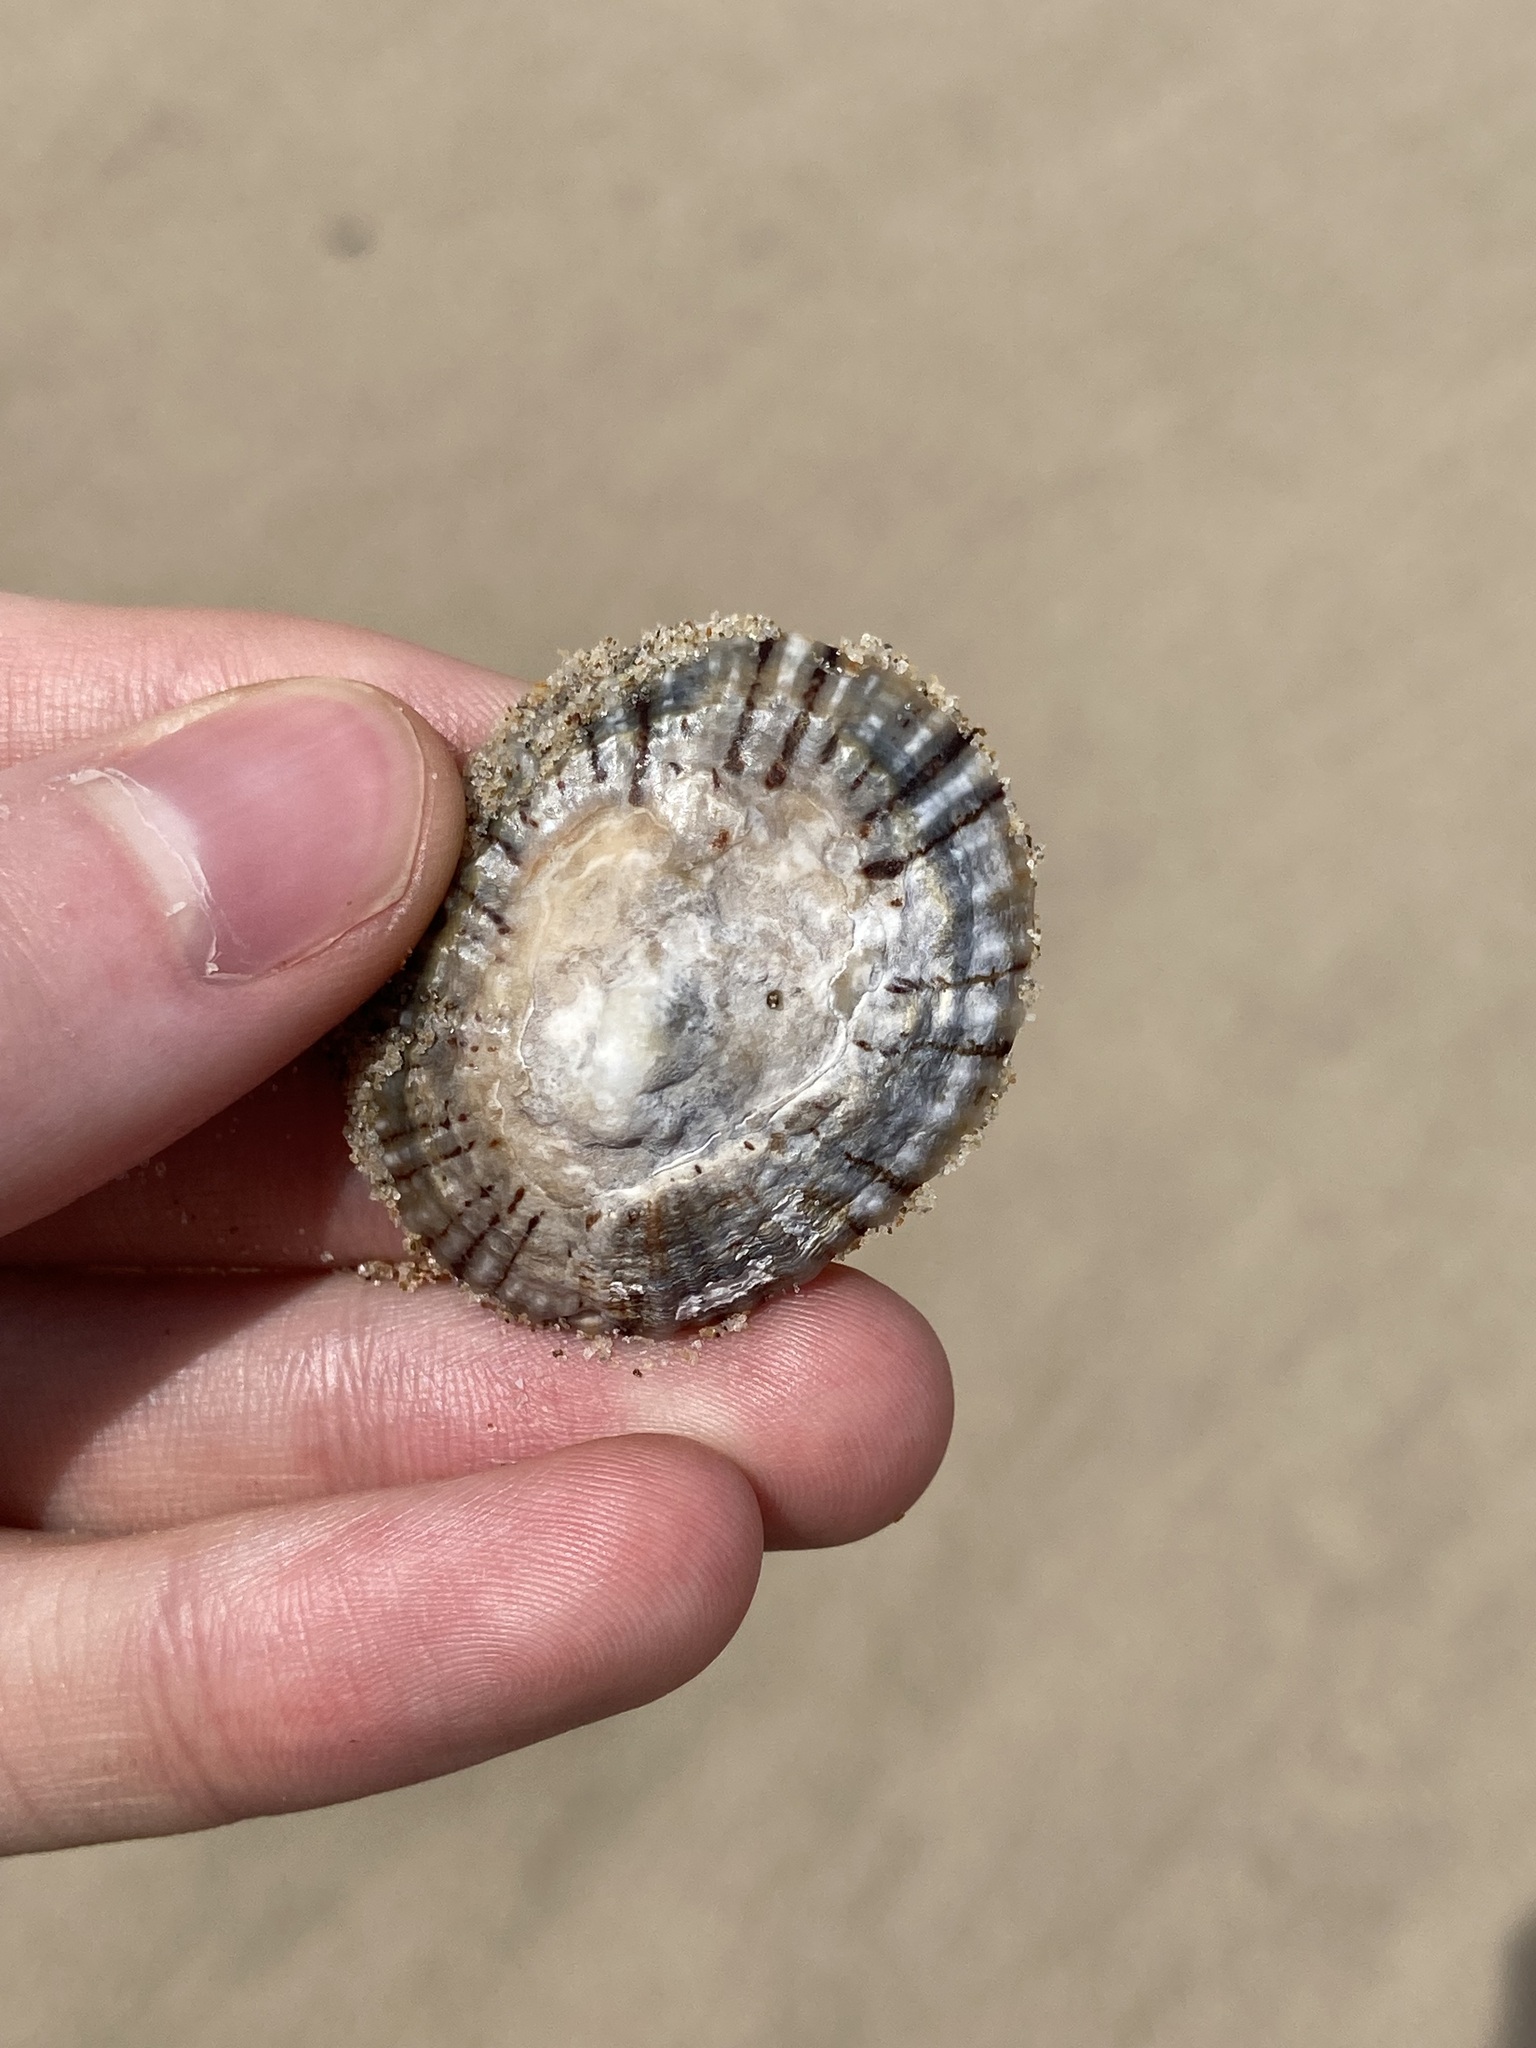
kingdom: Animalia
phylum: Mollusca
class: Gastropoda
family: Nacellidae
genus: Cellana
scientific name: Cellana tramoserica
